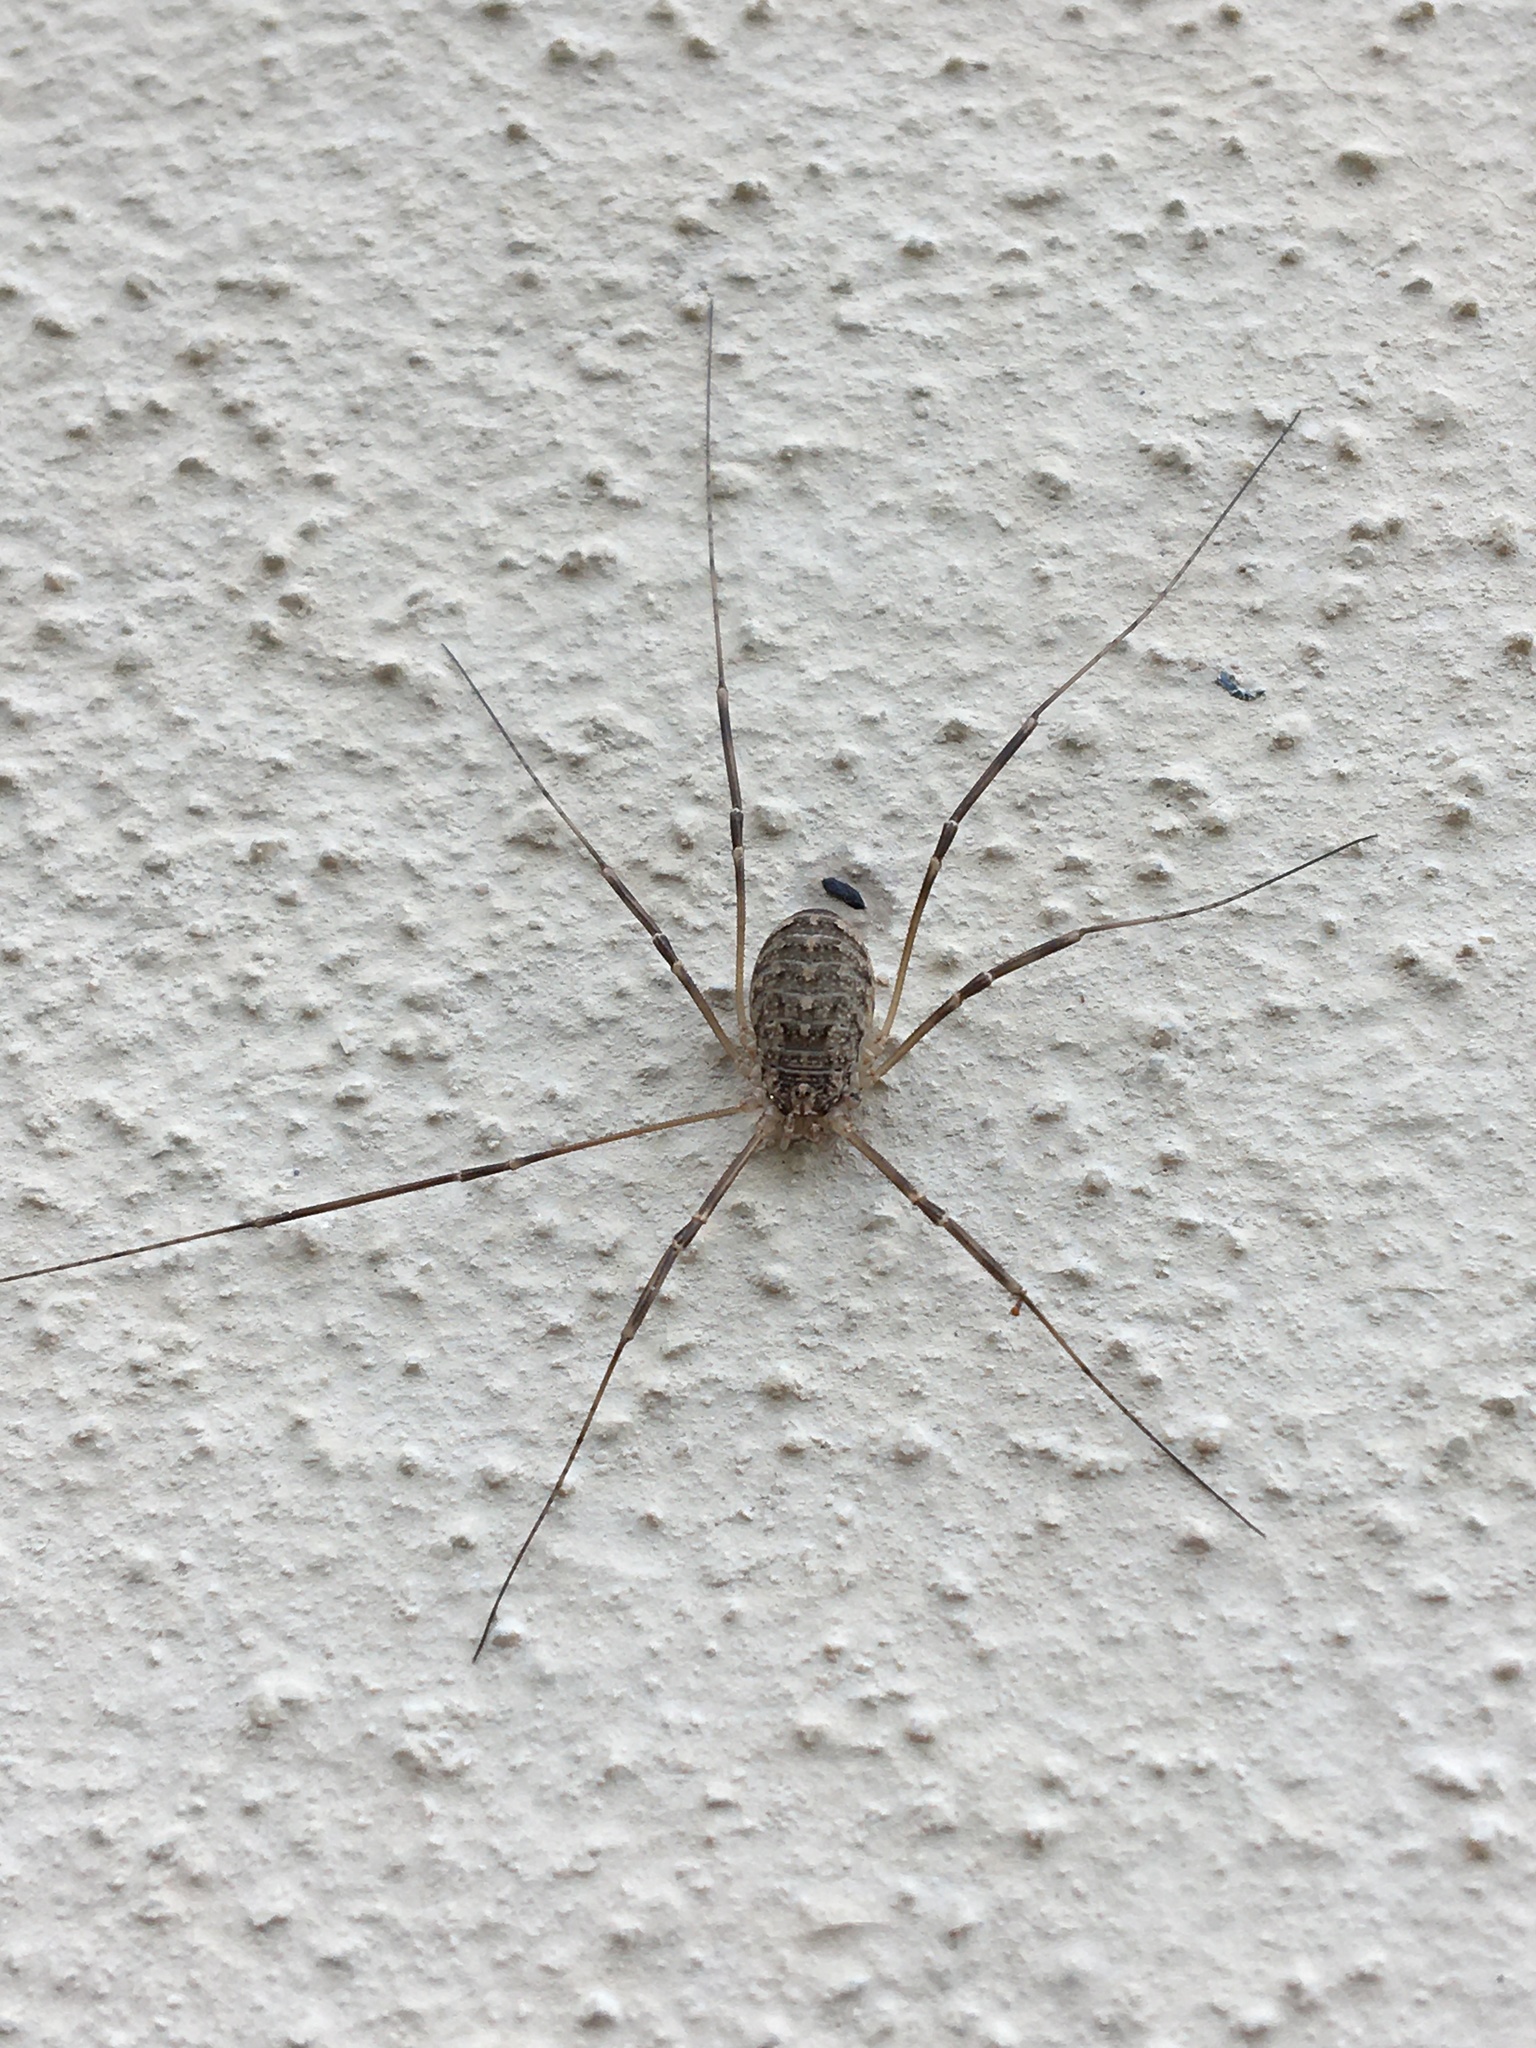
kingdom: Animalia
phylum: Arthropoda
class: Arachnida
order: Opiliones
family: Phalangiidae
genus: Opilio
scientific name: Opilio saxatilis
